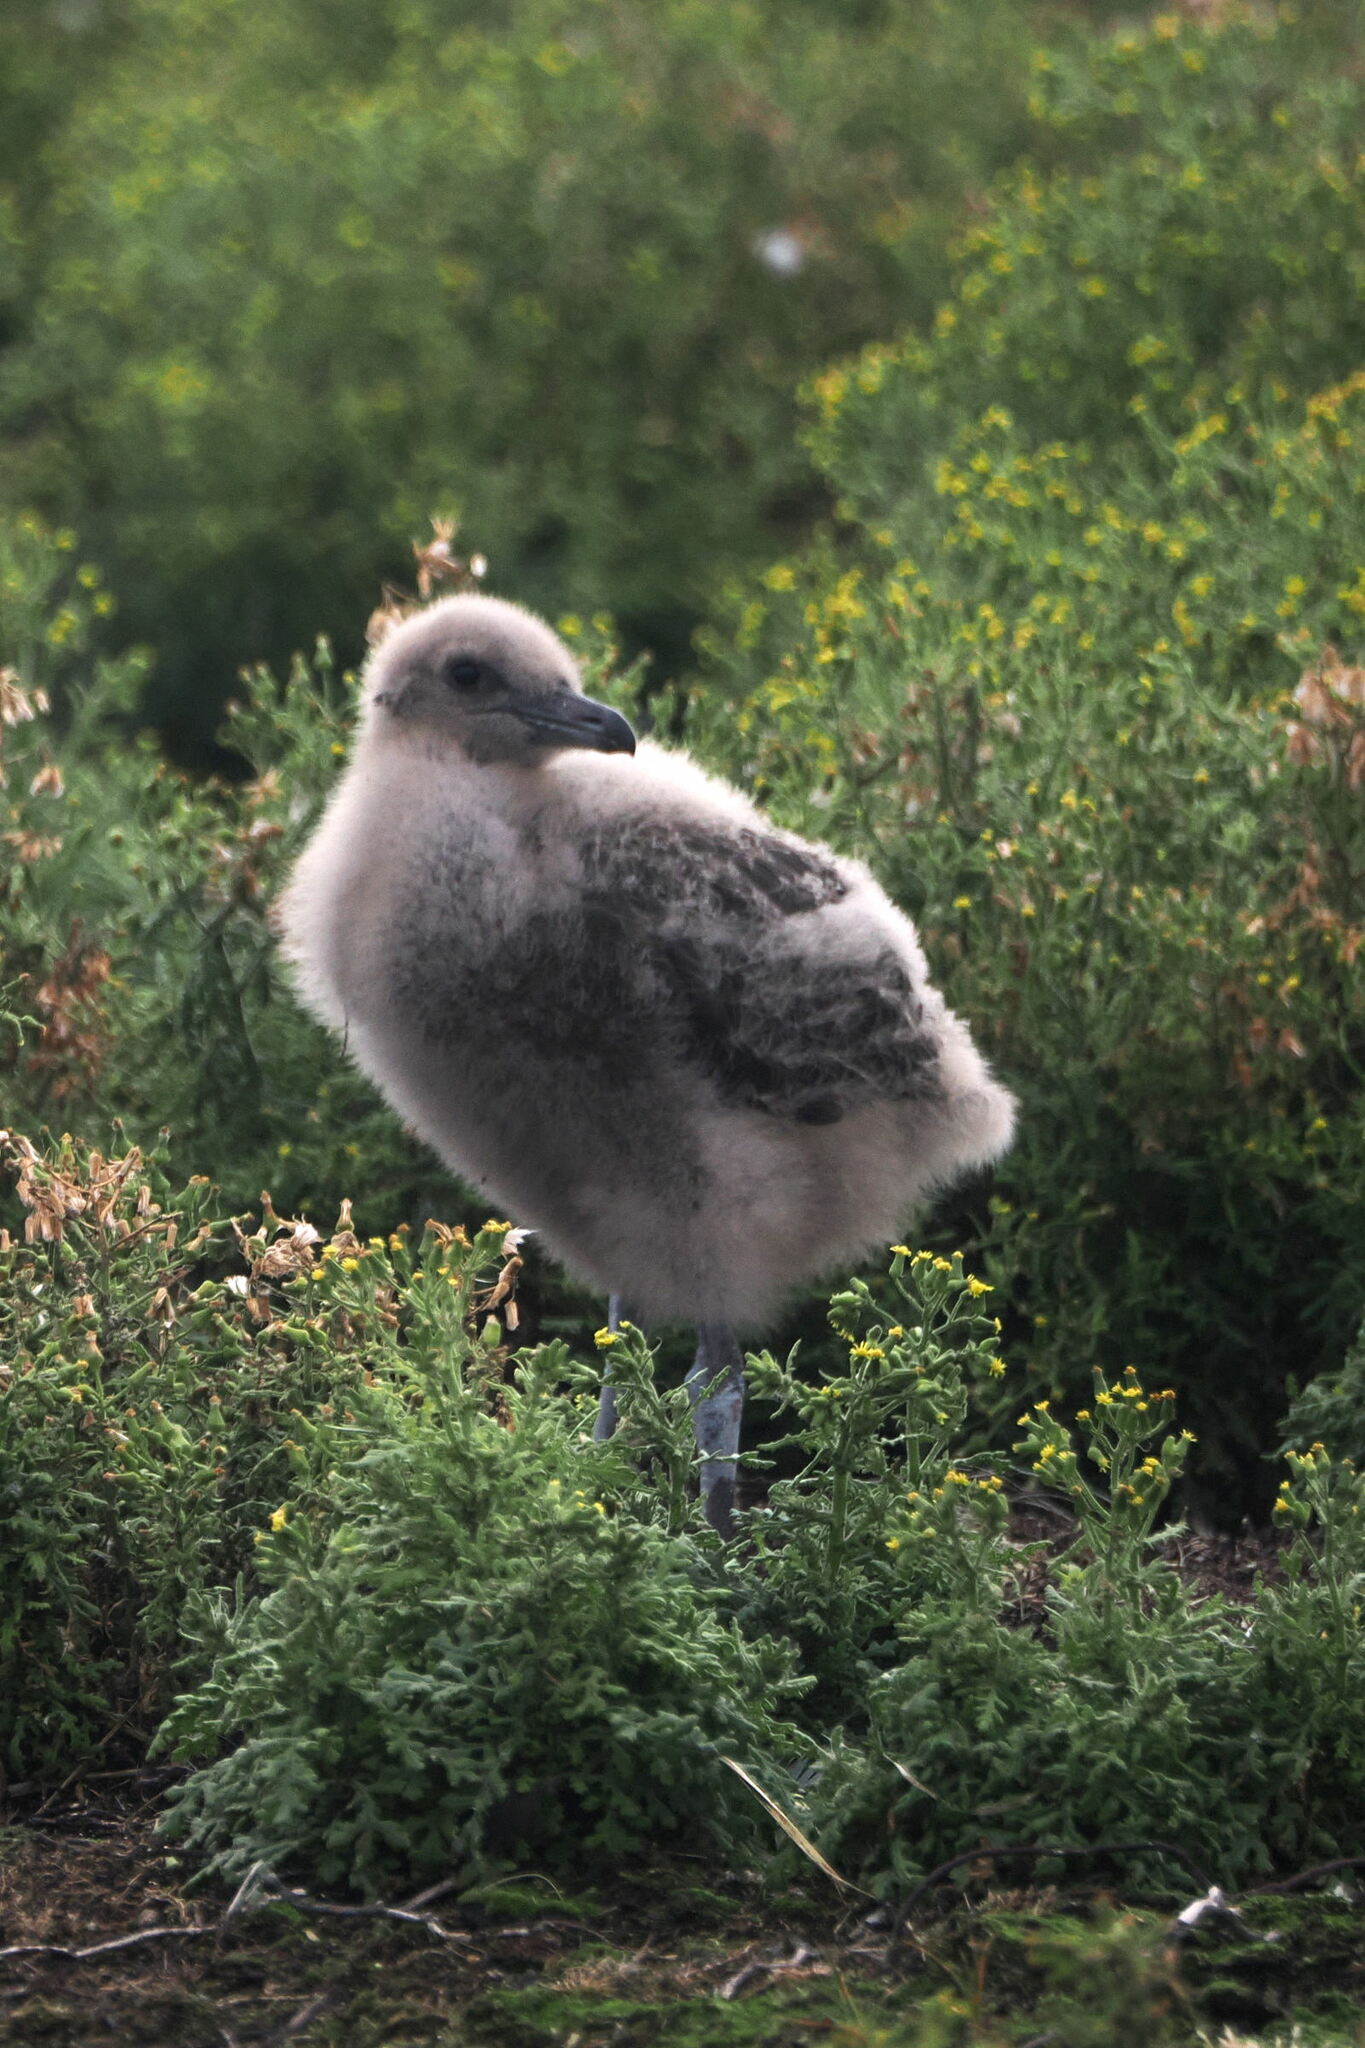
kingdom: Animalia
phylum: Chordata
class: Aves
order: Charadriiformes
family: Stercorariidae
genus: Stercorarius
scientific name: Stercorarius antarcticus
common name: Brown skua
